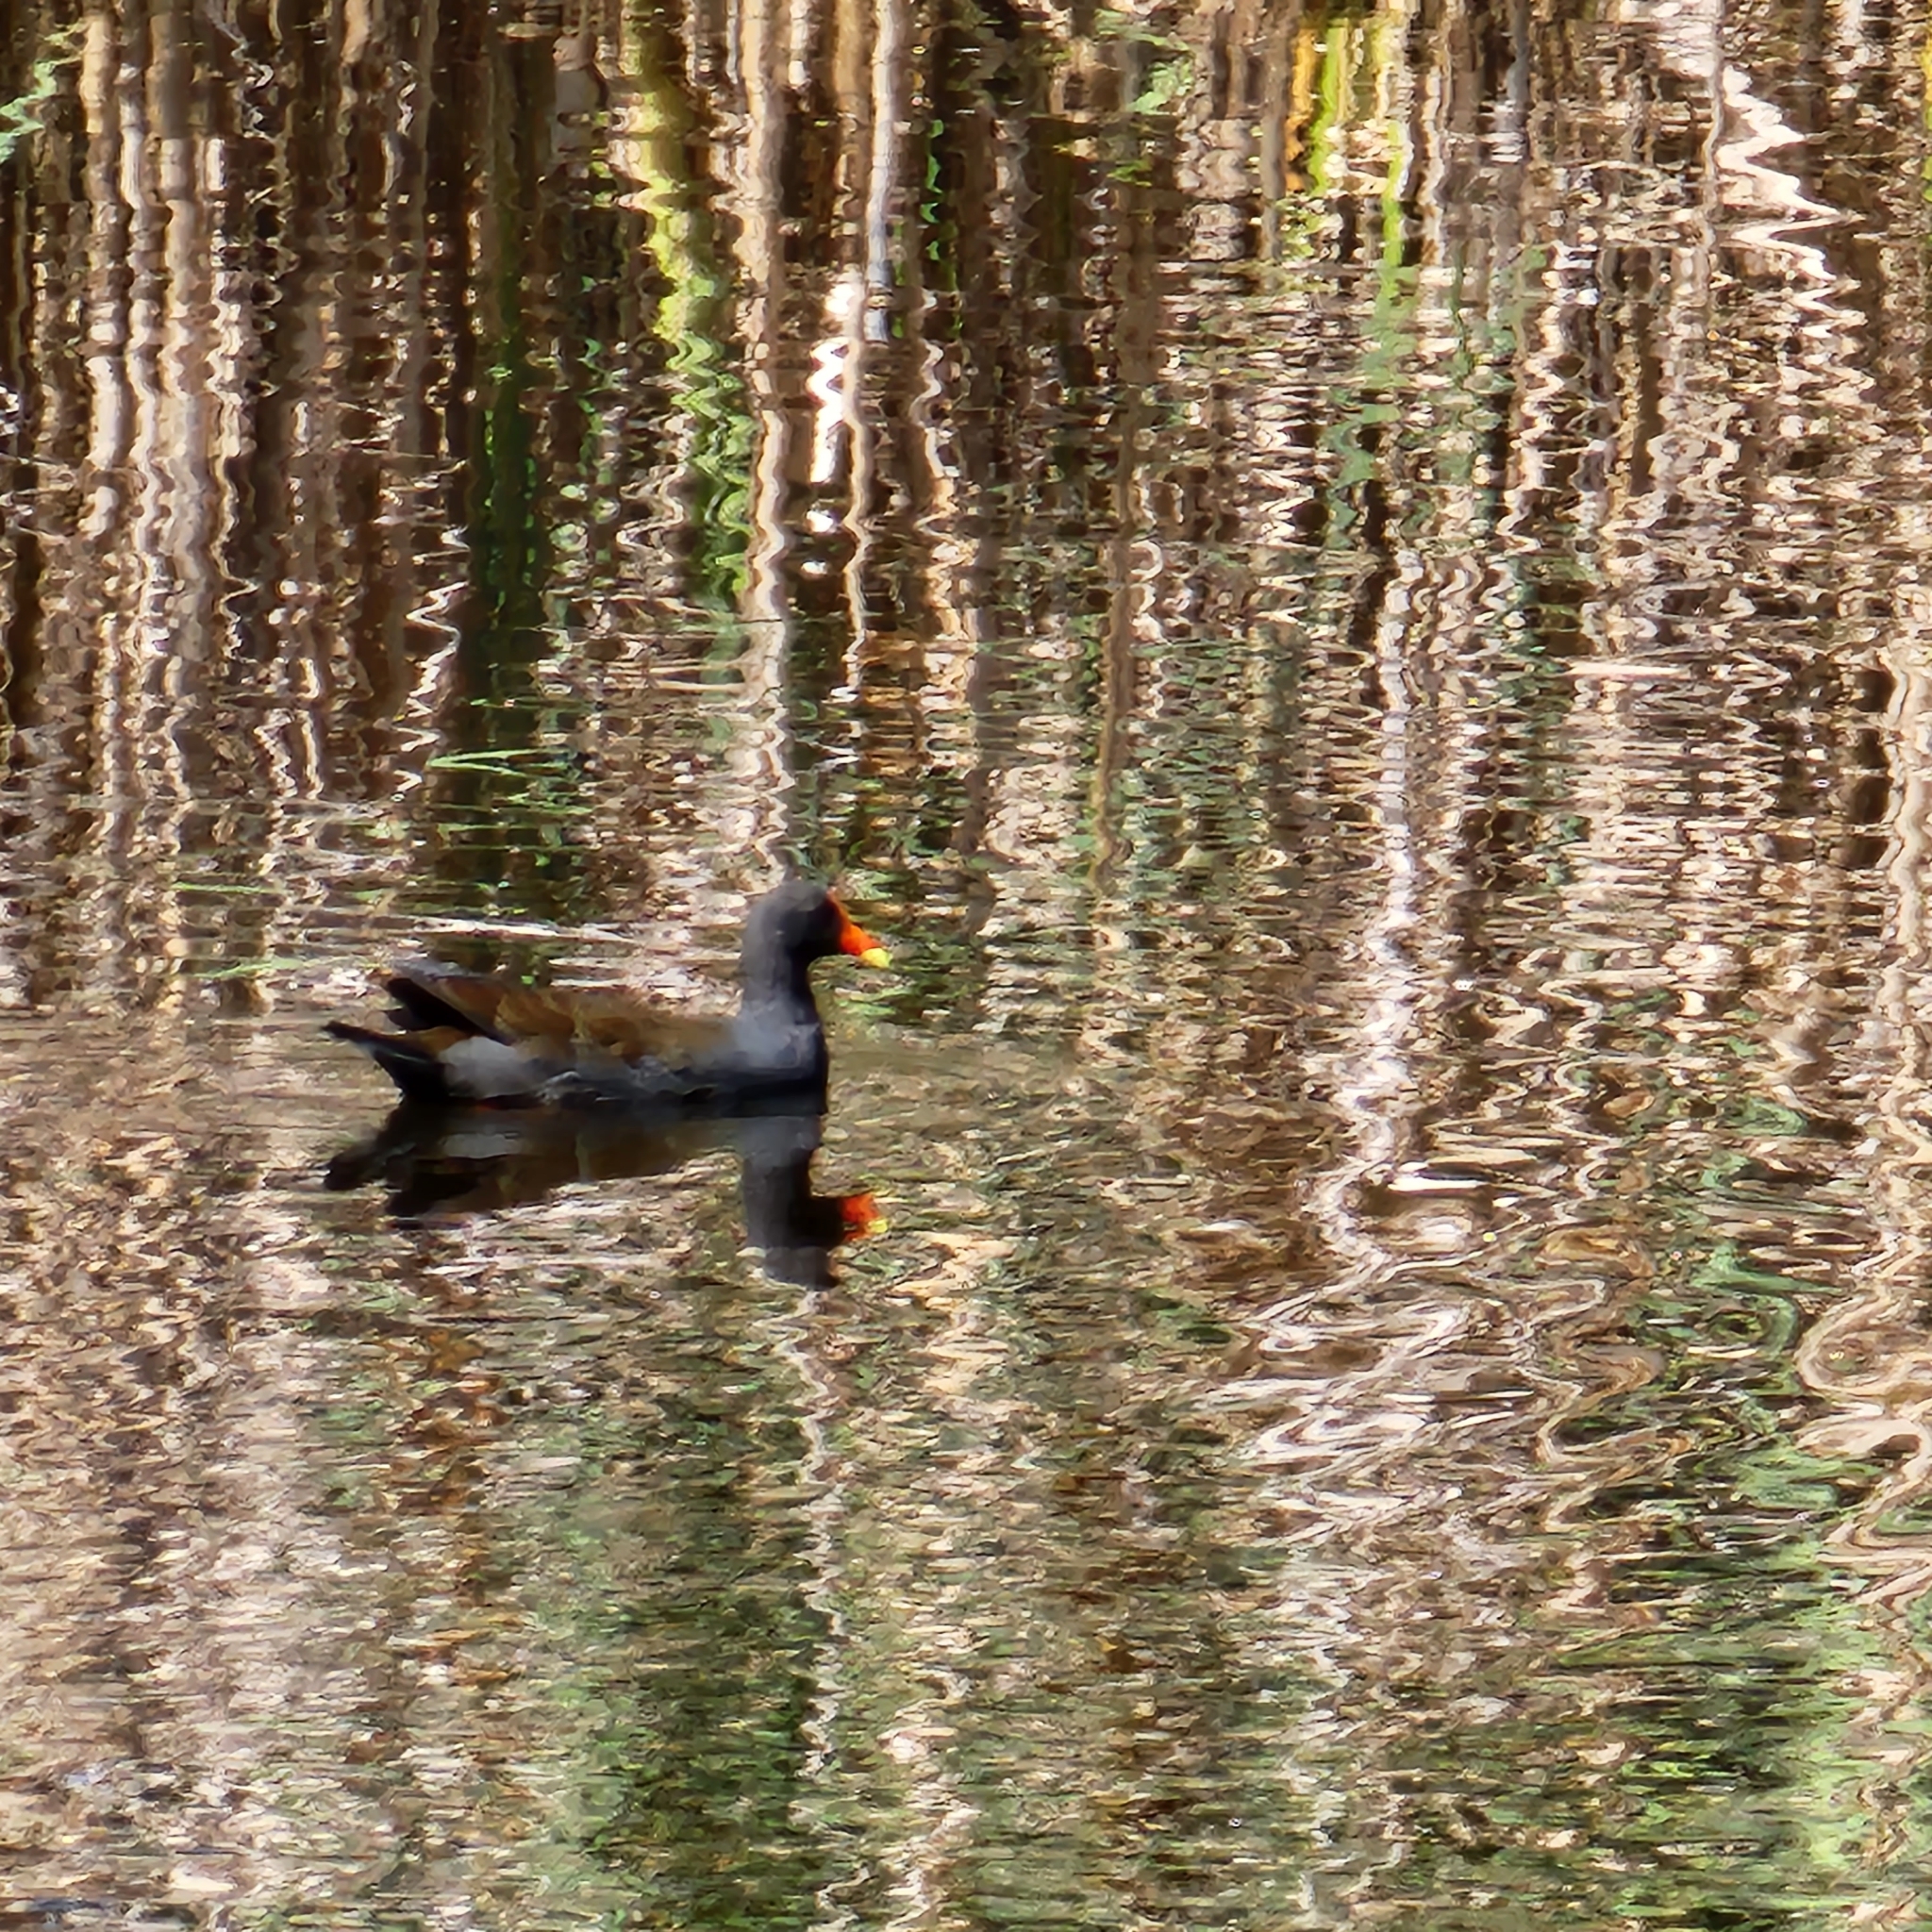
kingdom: Animalia
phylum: Chordata
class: Aves
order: Gruiformes
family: Rallidae
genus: Gallinula
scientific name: Gallinula tenebrosa
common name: Dusky moorhen
